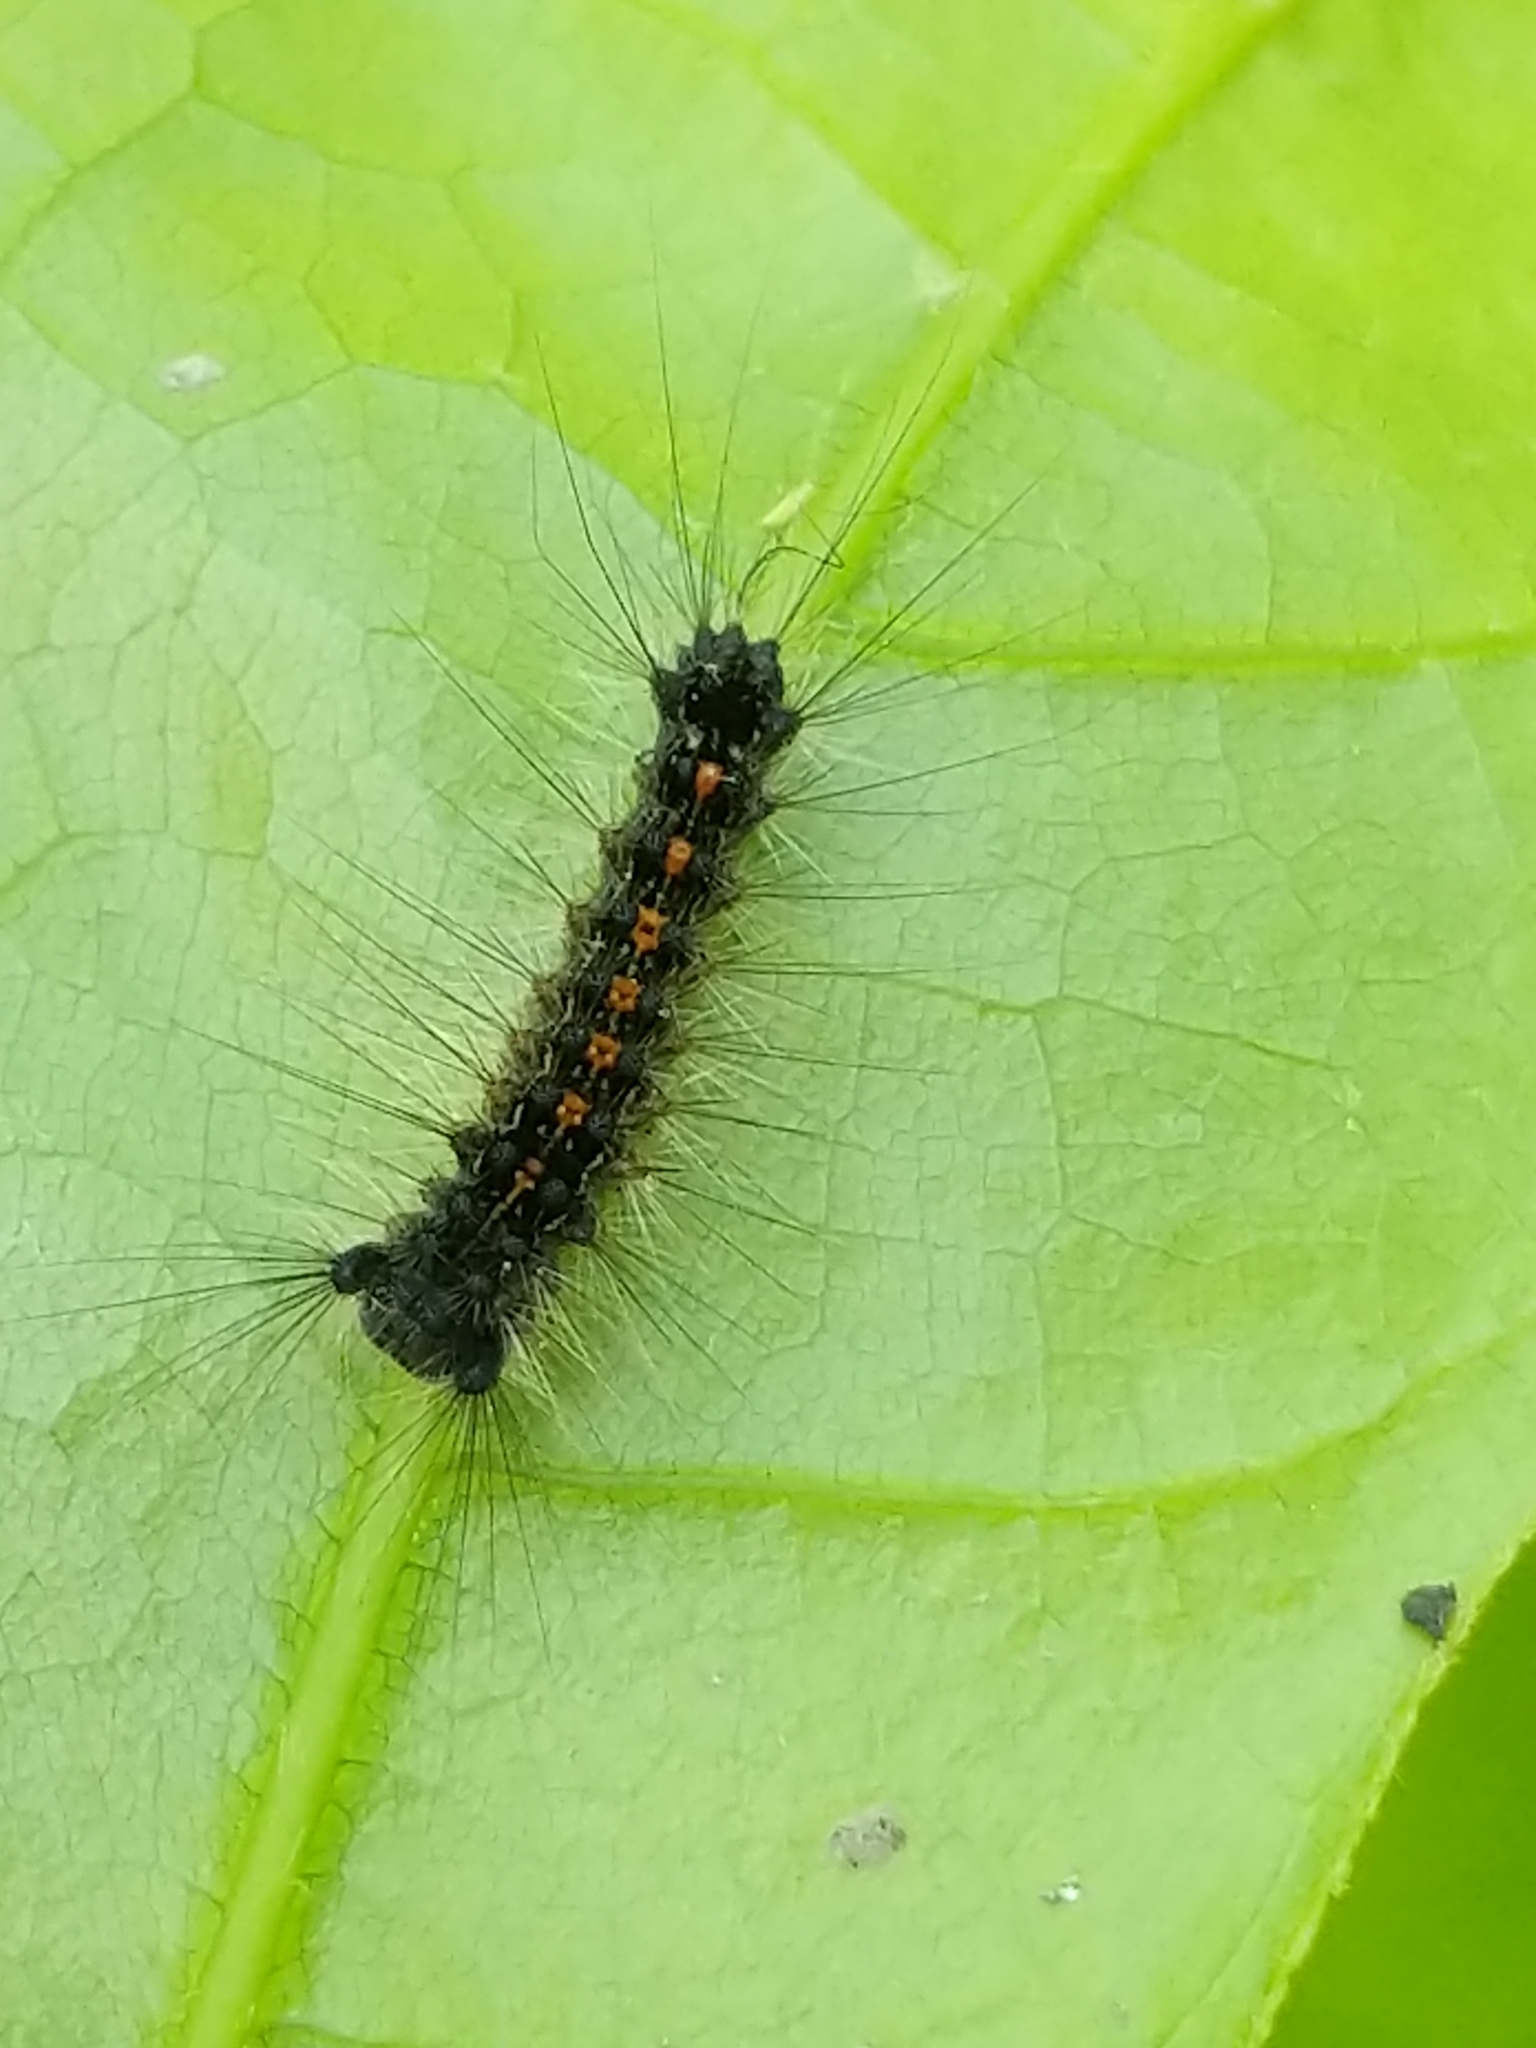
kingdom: Animalia
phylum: Arthropoda
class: Insecta
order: Lepidoptera
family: Erebidae
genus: Lymantria
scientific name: Lymantria dispar
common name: Gypsy moth
